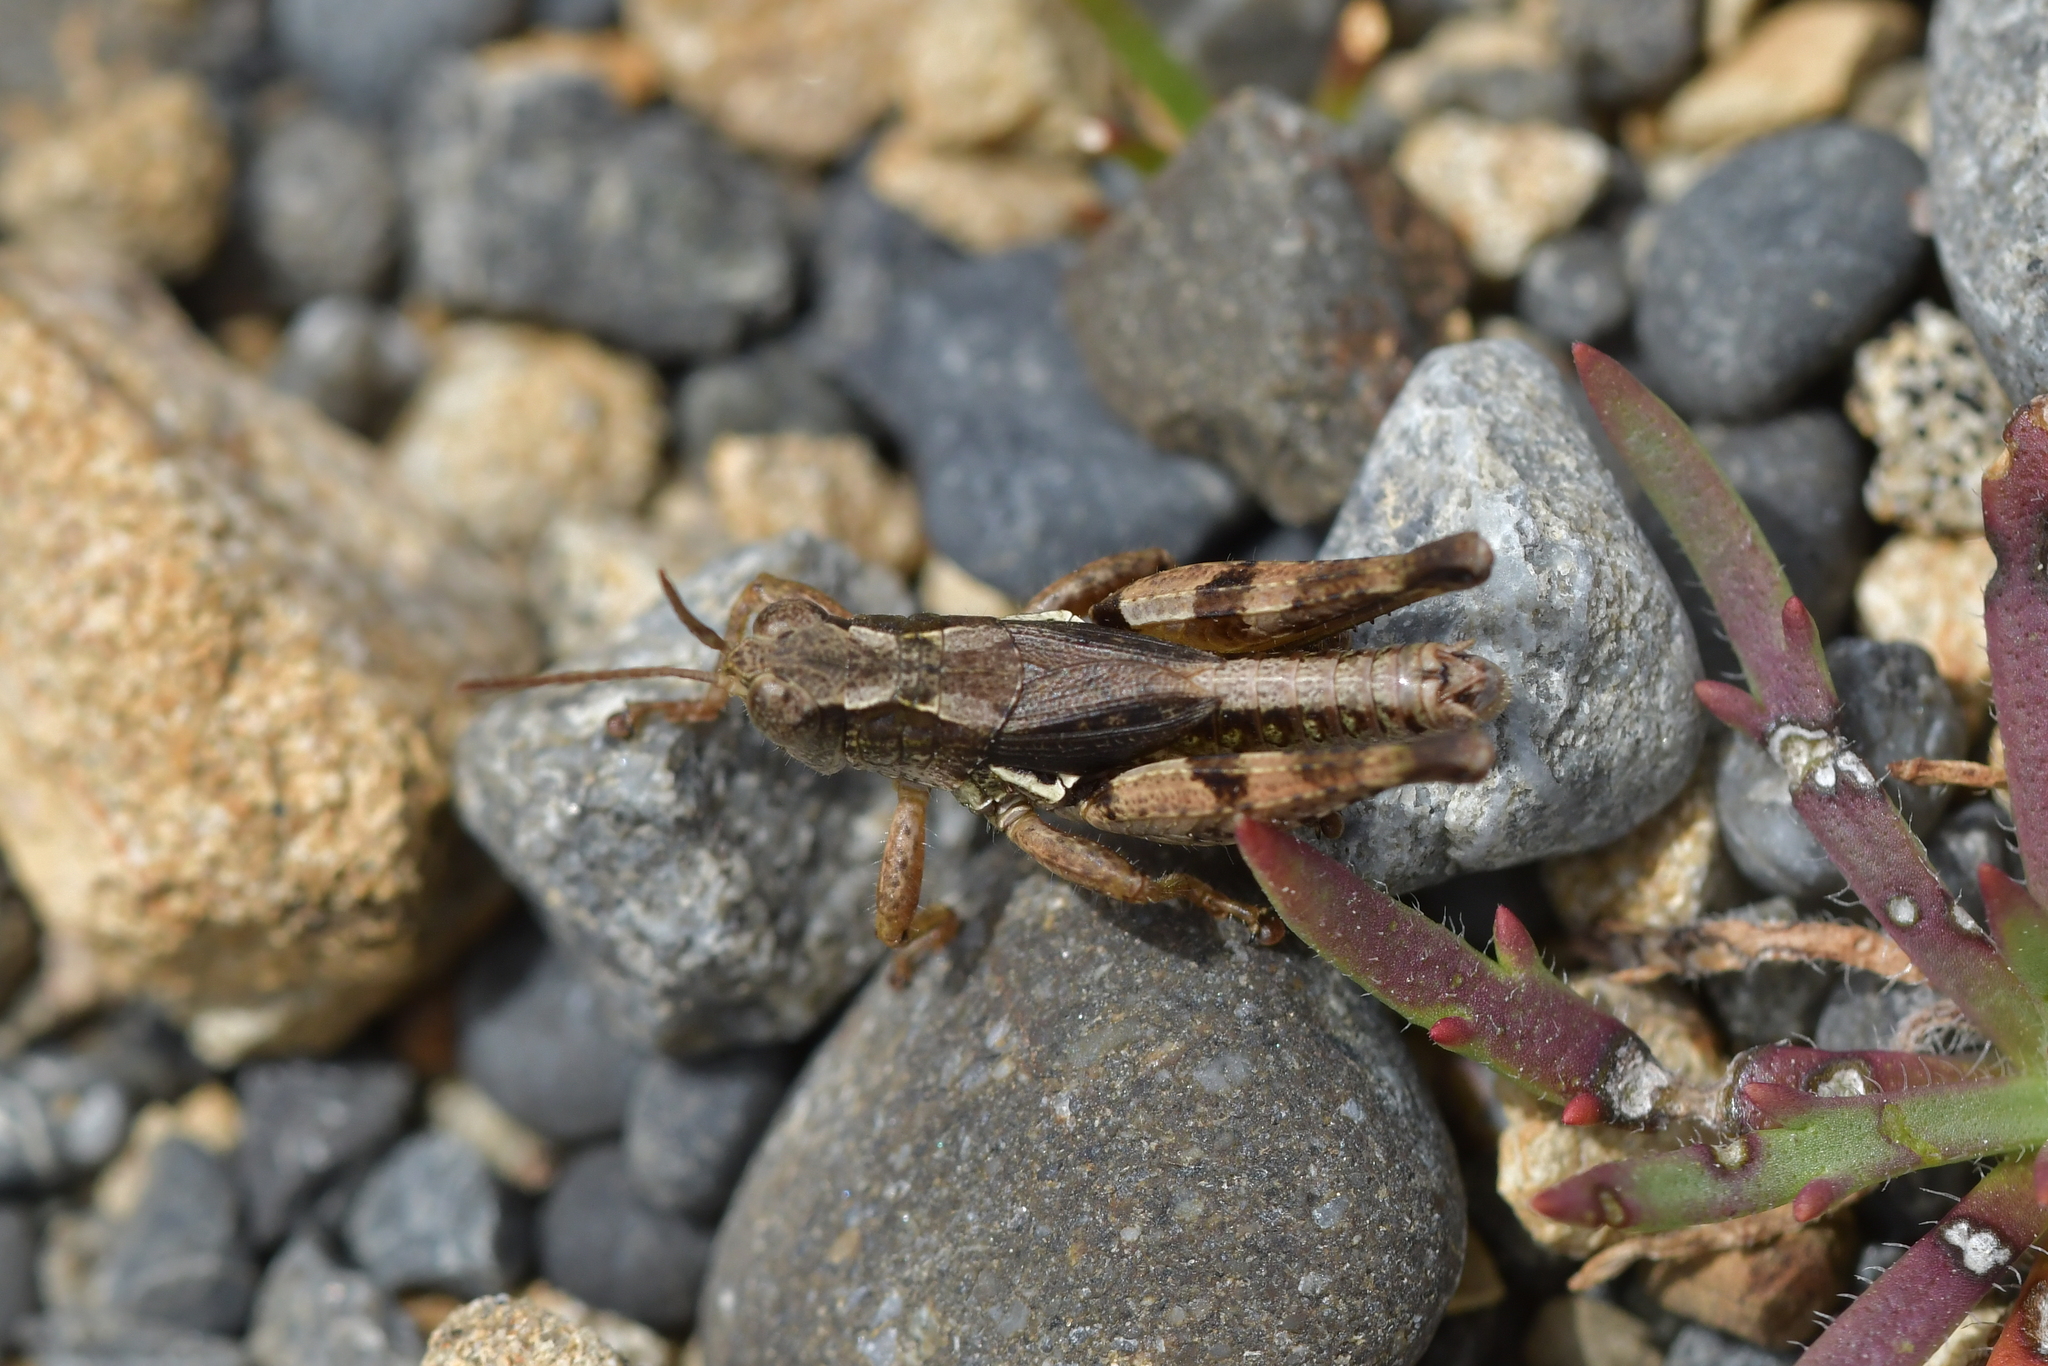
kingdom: Animalia
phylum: Arthropoda
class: Insecta
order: Orthoptera
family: Acrididae
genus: Phaulacridium
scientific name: Phaulacridium marginale
